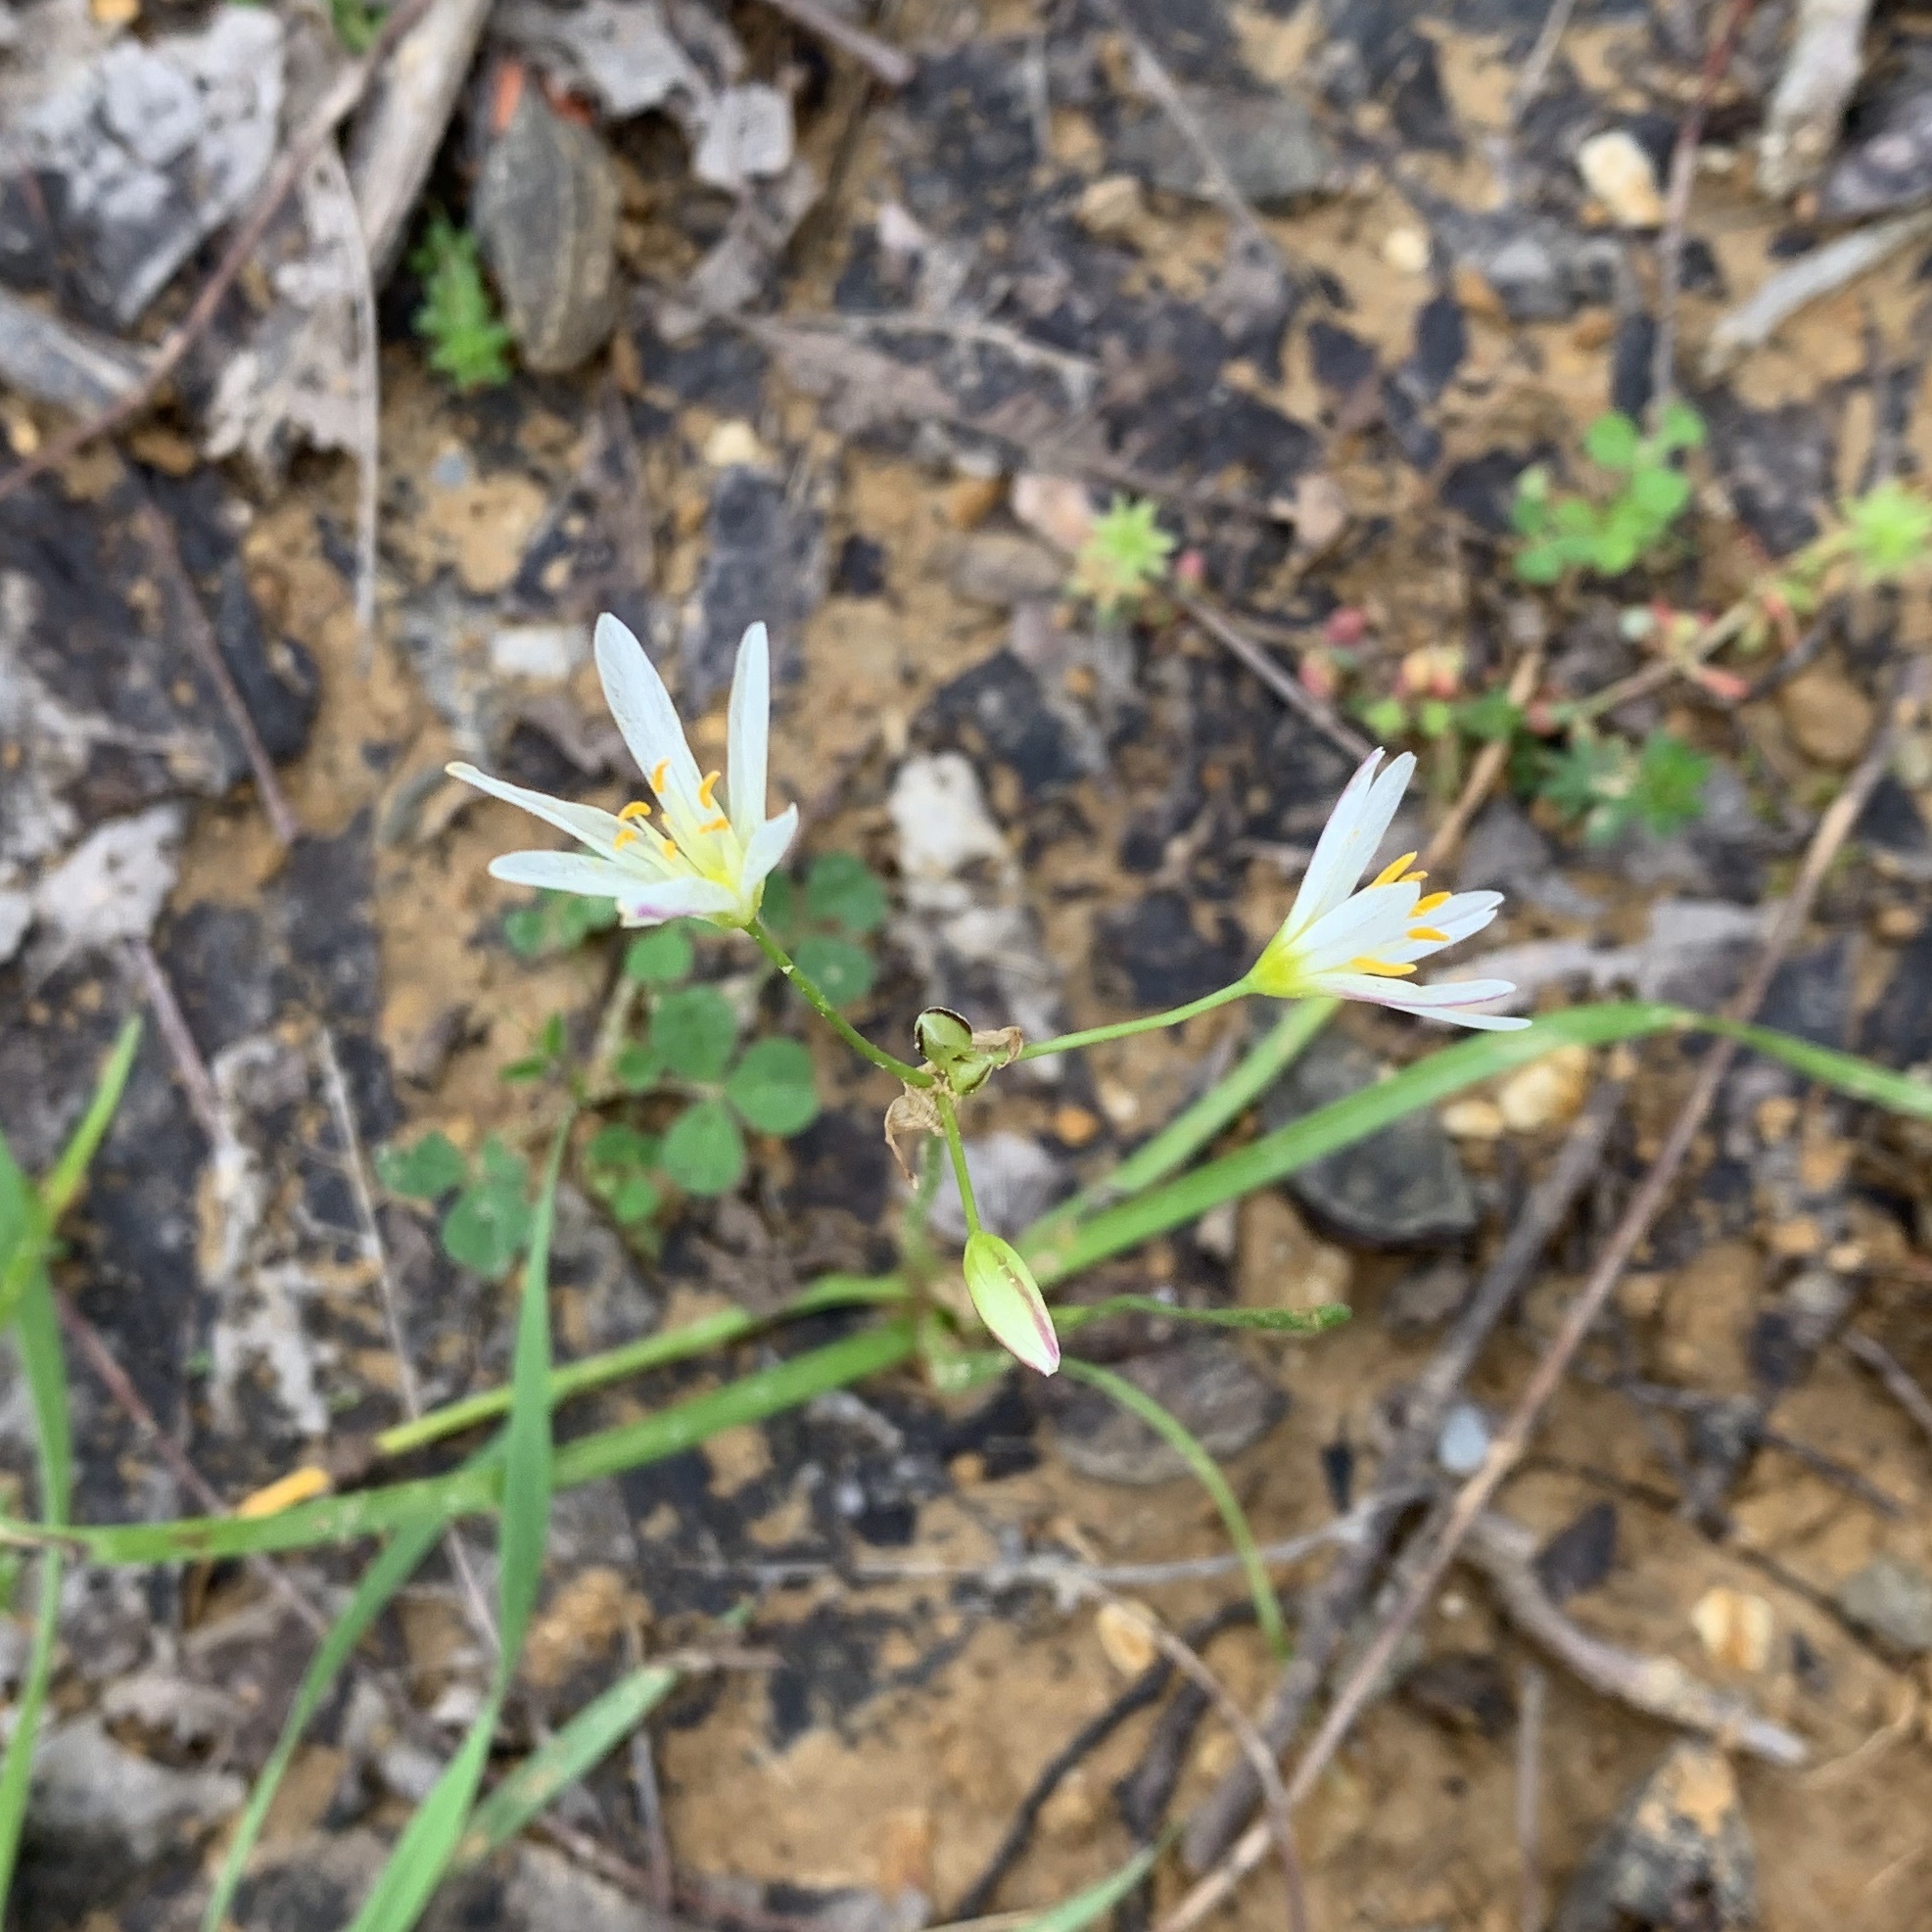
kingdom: Plantae
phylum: Tracheophyta
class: Liliopsida
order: Asparagales
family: Amaryllidaceae
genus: Nothoscordum
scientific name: Nothoscordum bivalve
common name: Crow-poison
